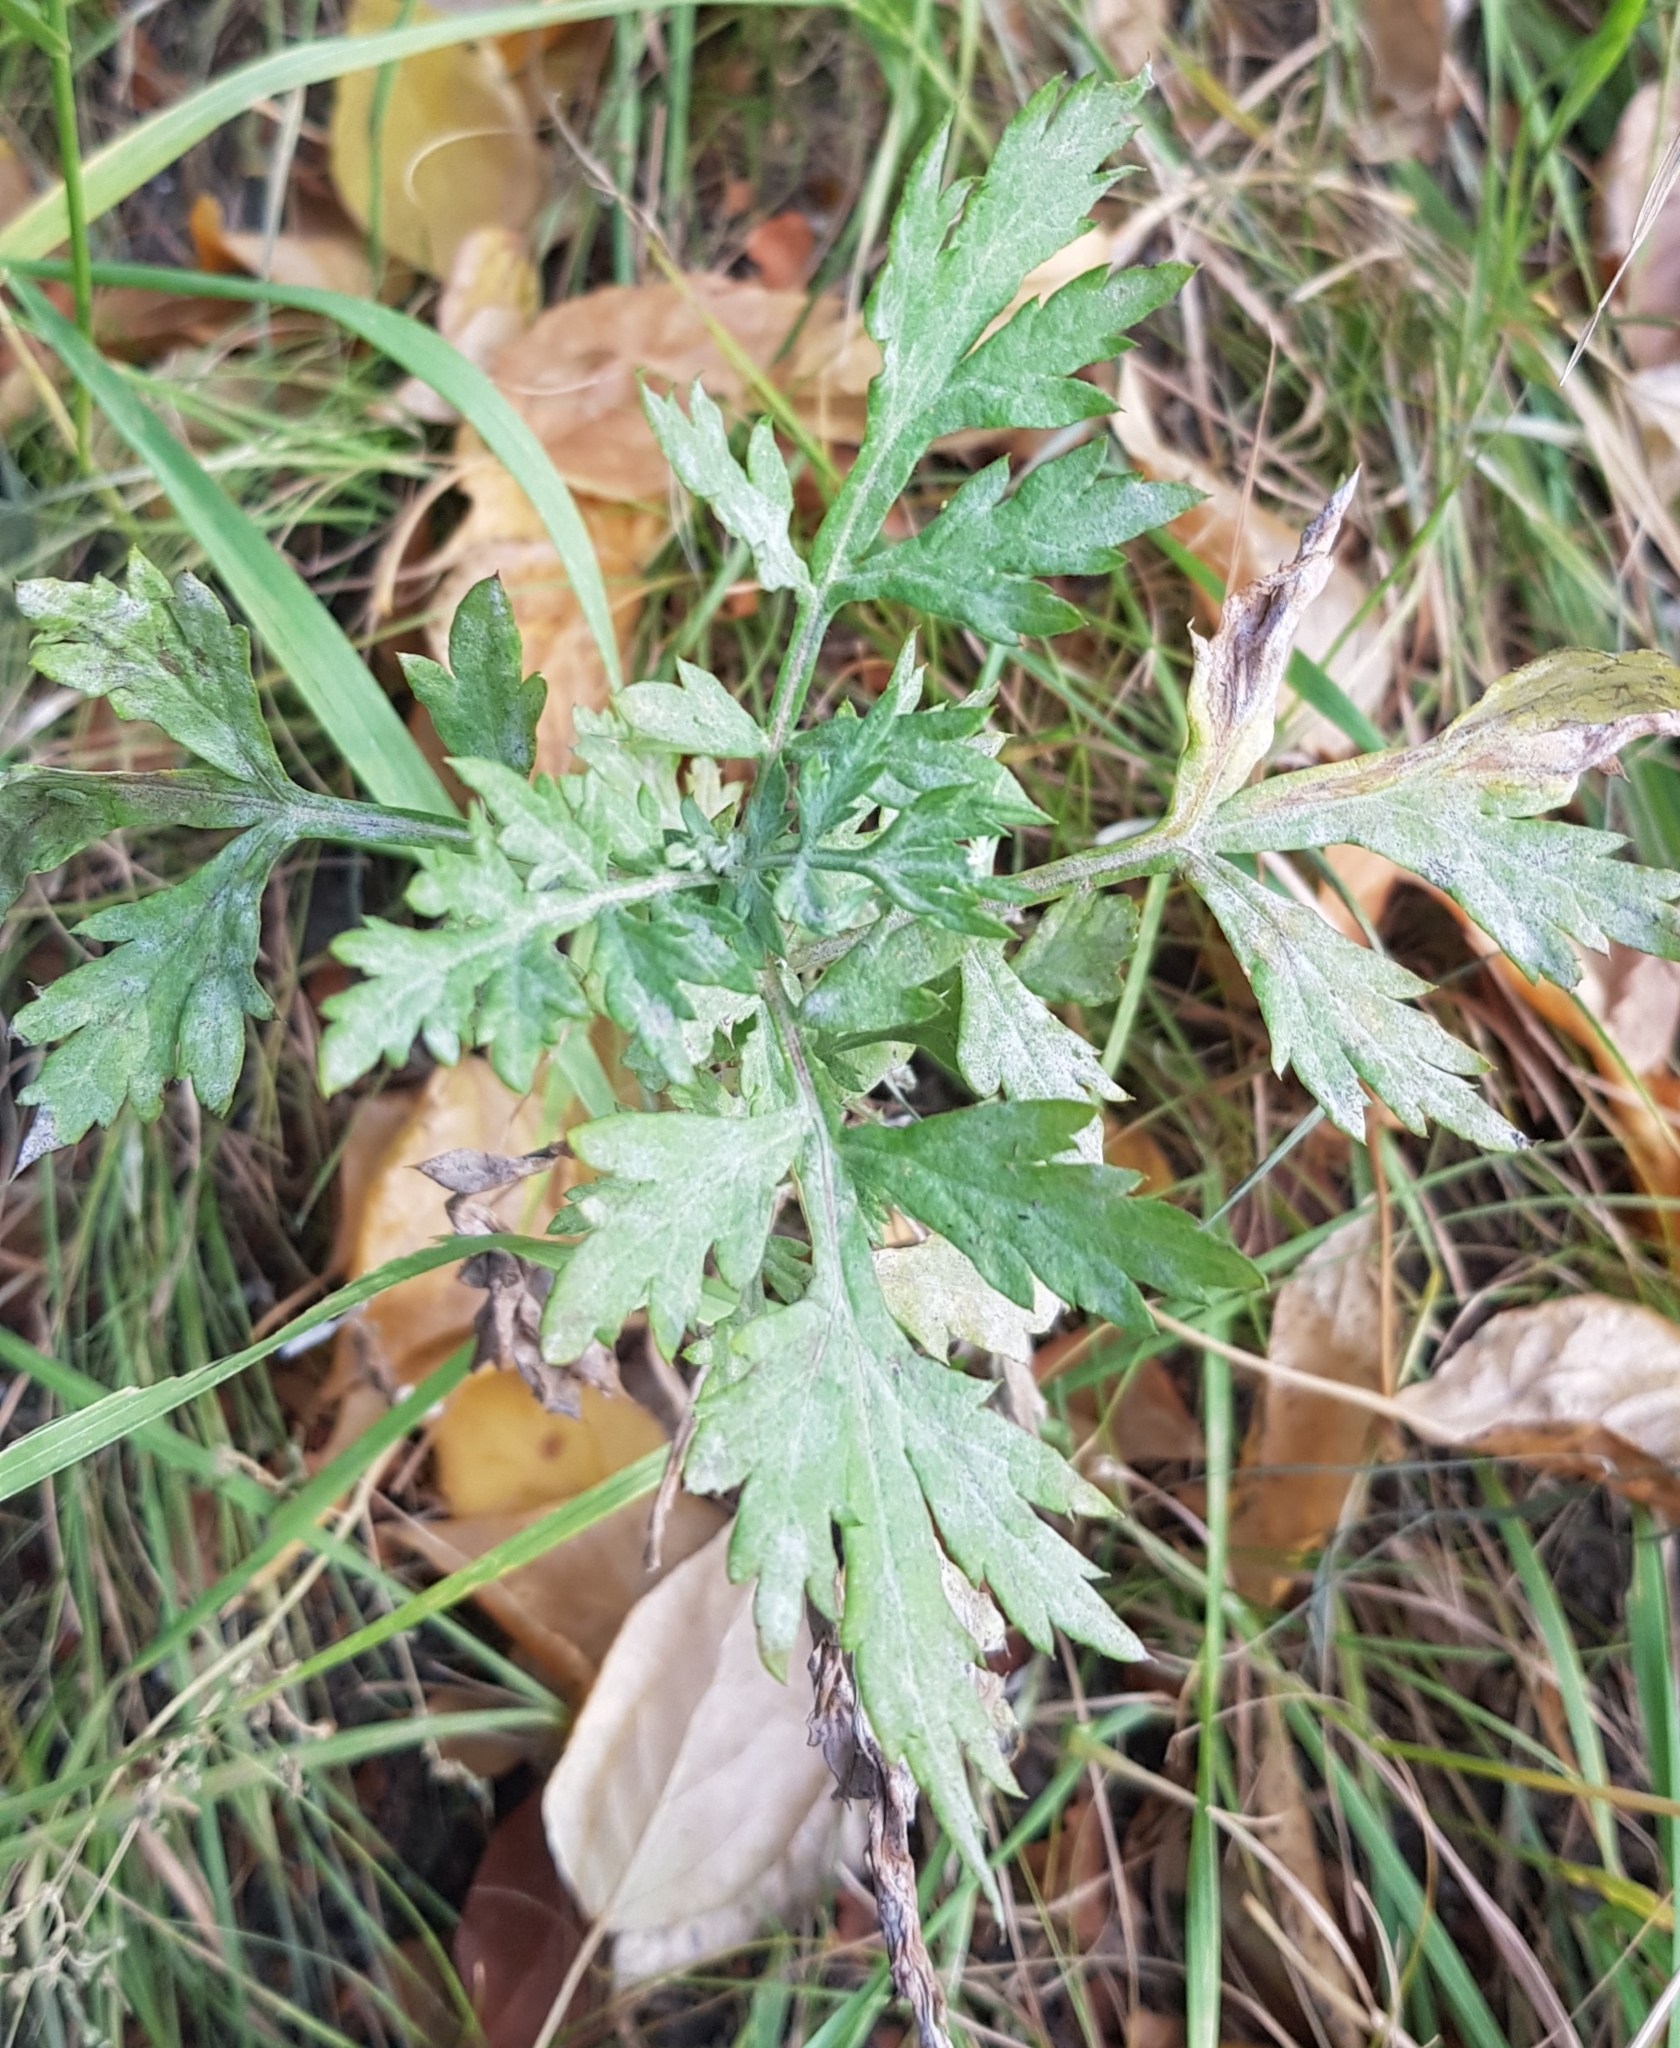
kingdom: Plantae
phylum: Tracheophyta
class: Magnoliopsida
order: Asterales
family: Asteraceae
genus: Artemisia
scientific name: Artemisia vulgaris
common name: Mugwort
